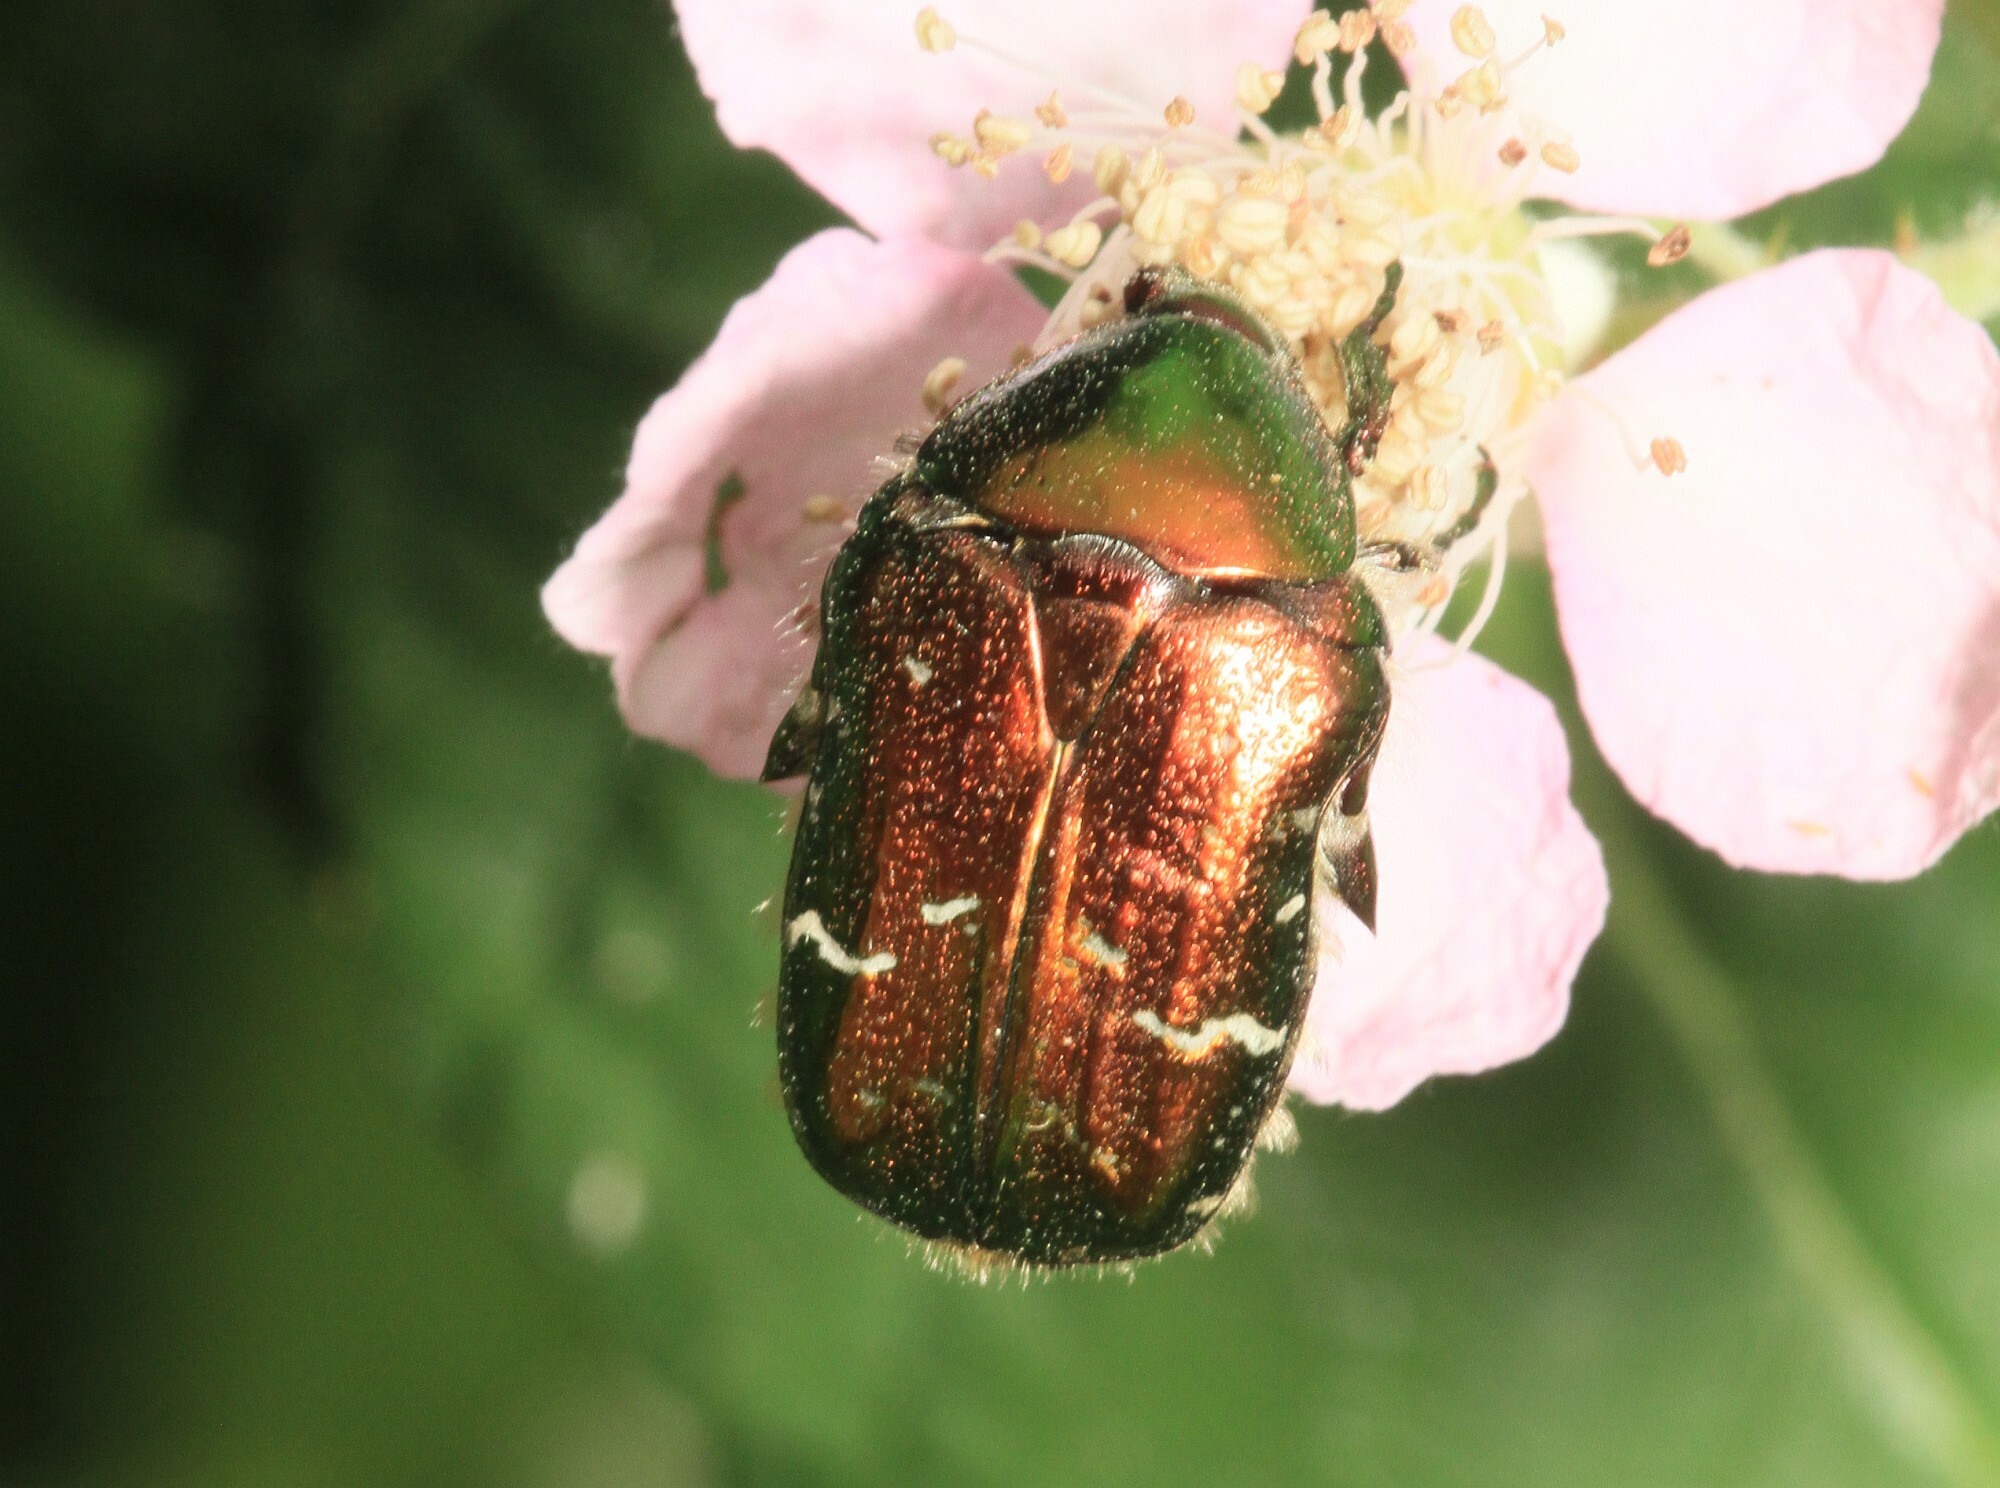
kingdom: Animalia
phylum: Arthropoda
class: Insecta
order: Coleoptera
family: Scarabaeidae
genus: Cetonia
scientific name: Cetonia aurata
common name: Rose chafer
